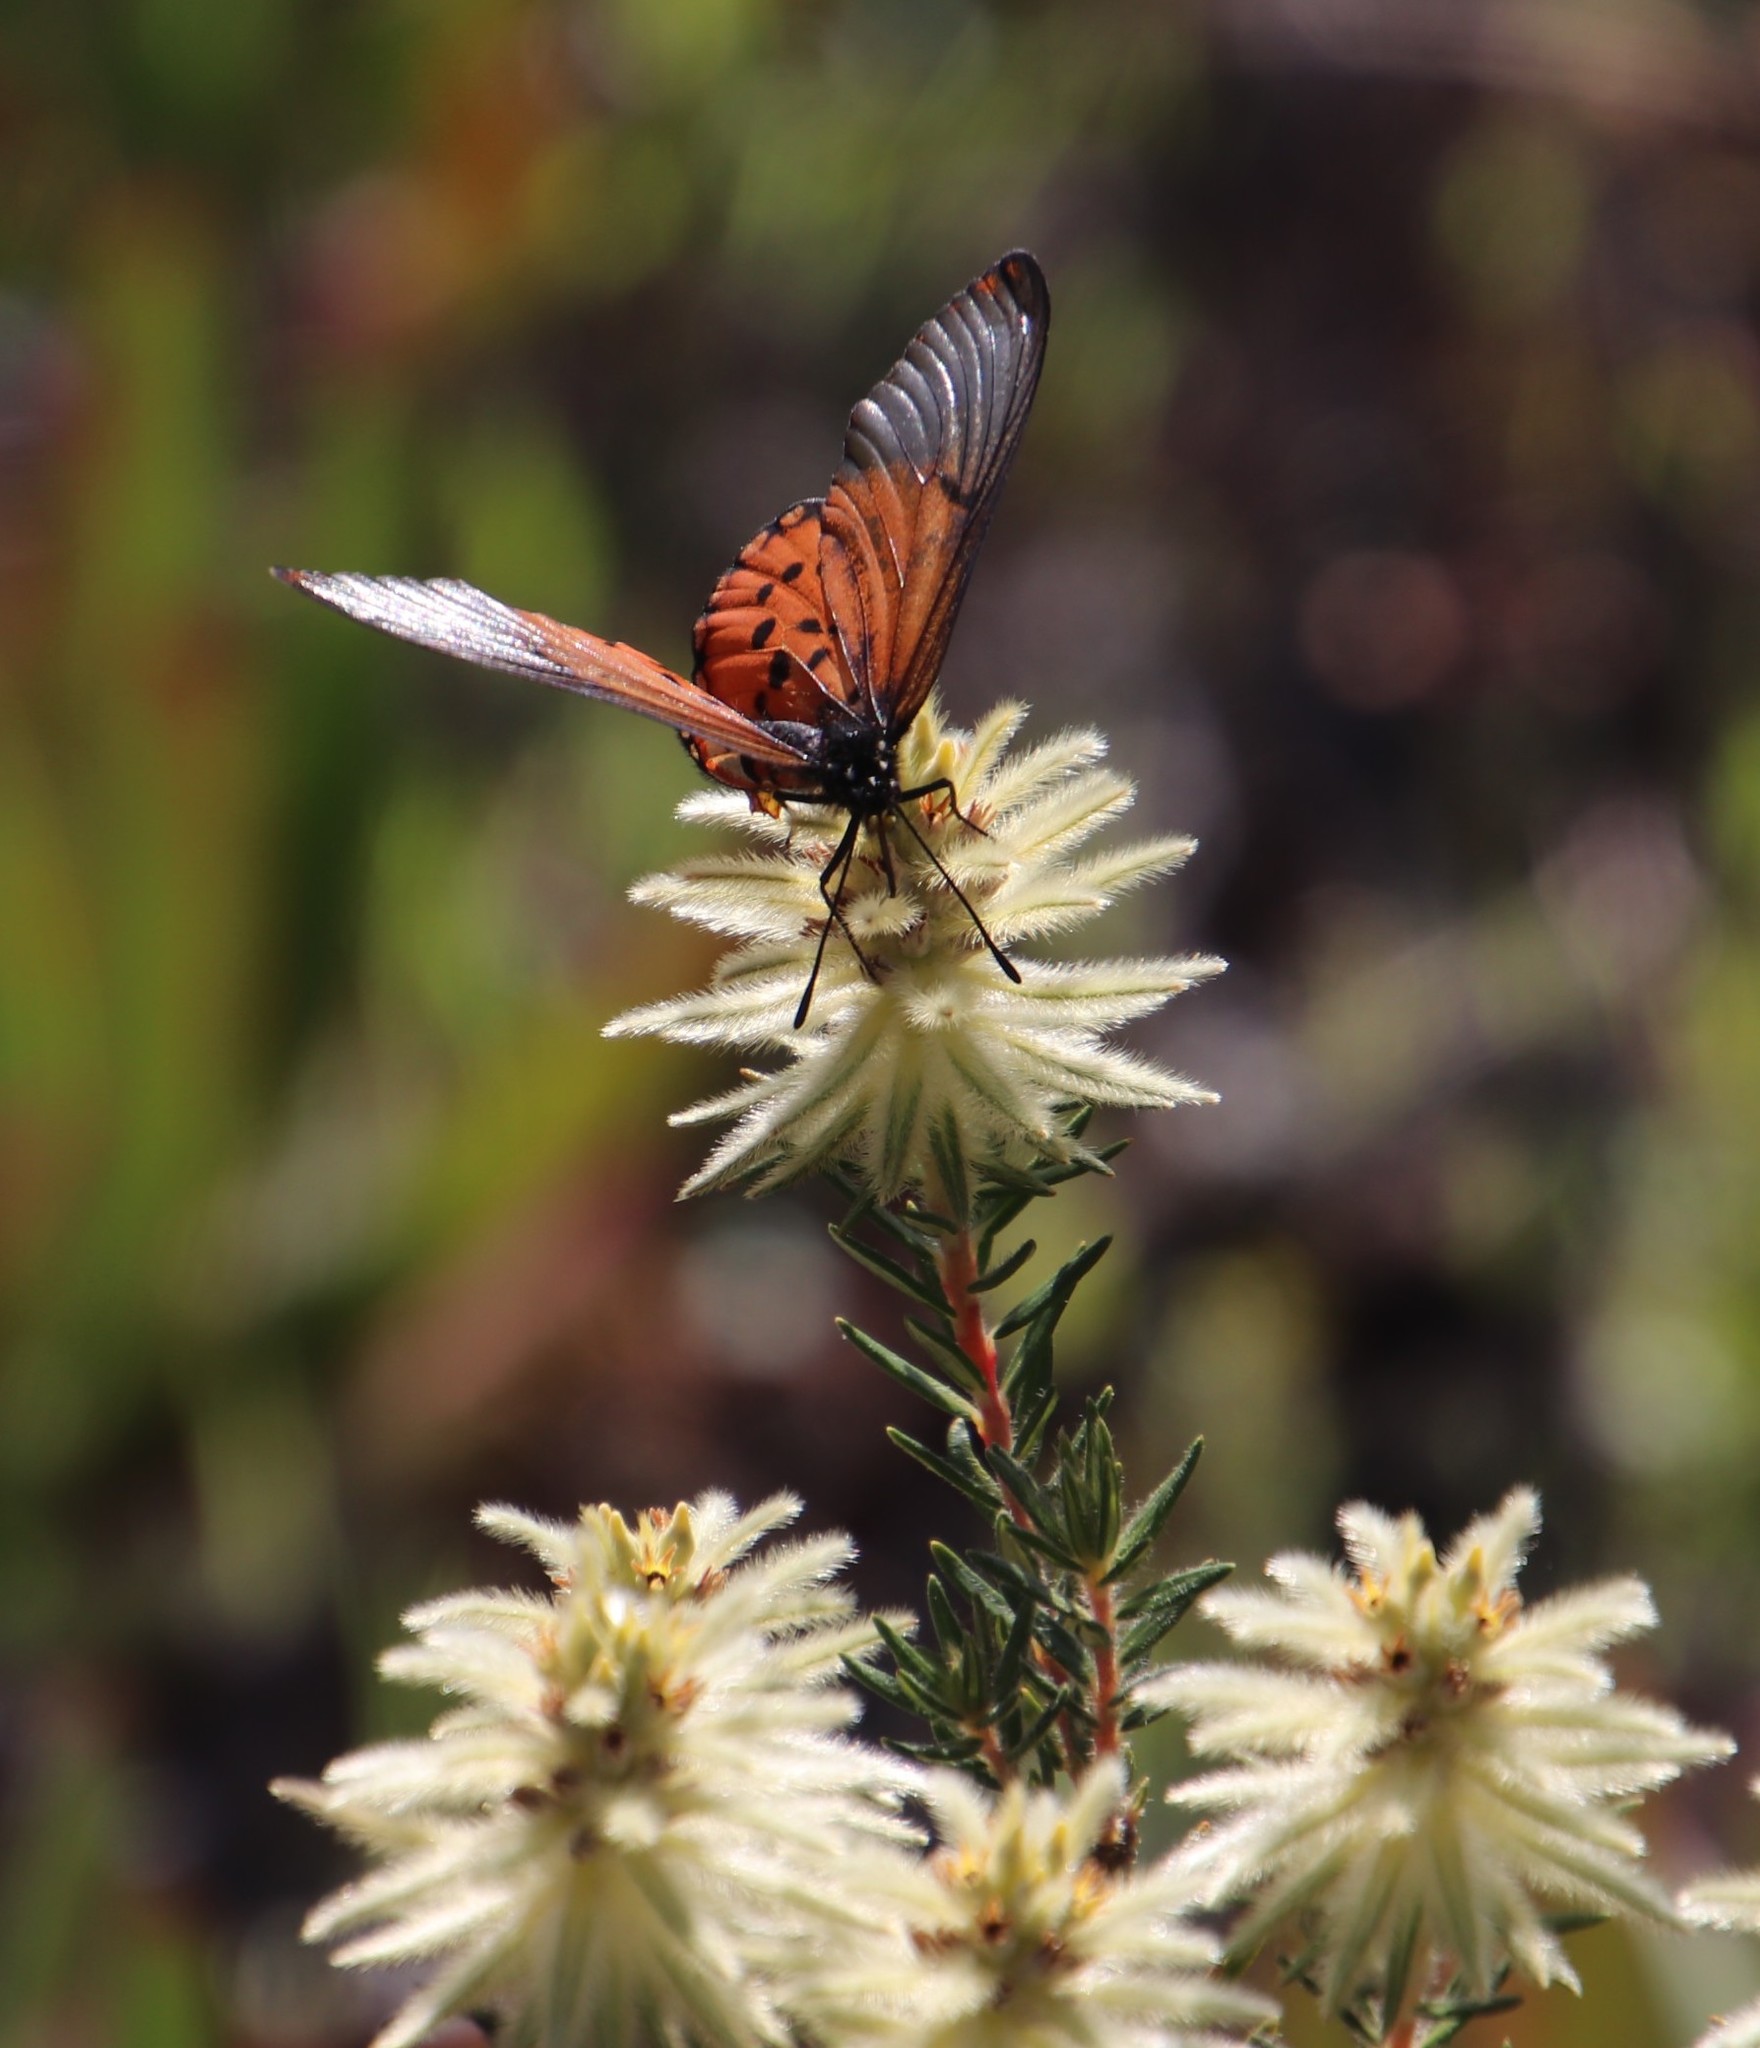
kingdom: Animalia
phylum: Arthropoda
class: Insecta
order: Lepidoptera
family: Nymphalidae
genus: Acraea
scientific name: Acraea horta
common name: Garden acraea
